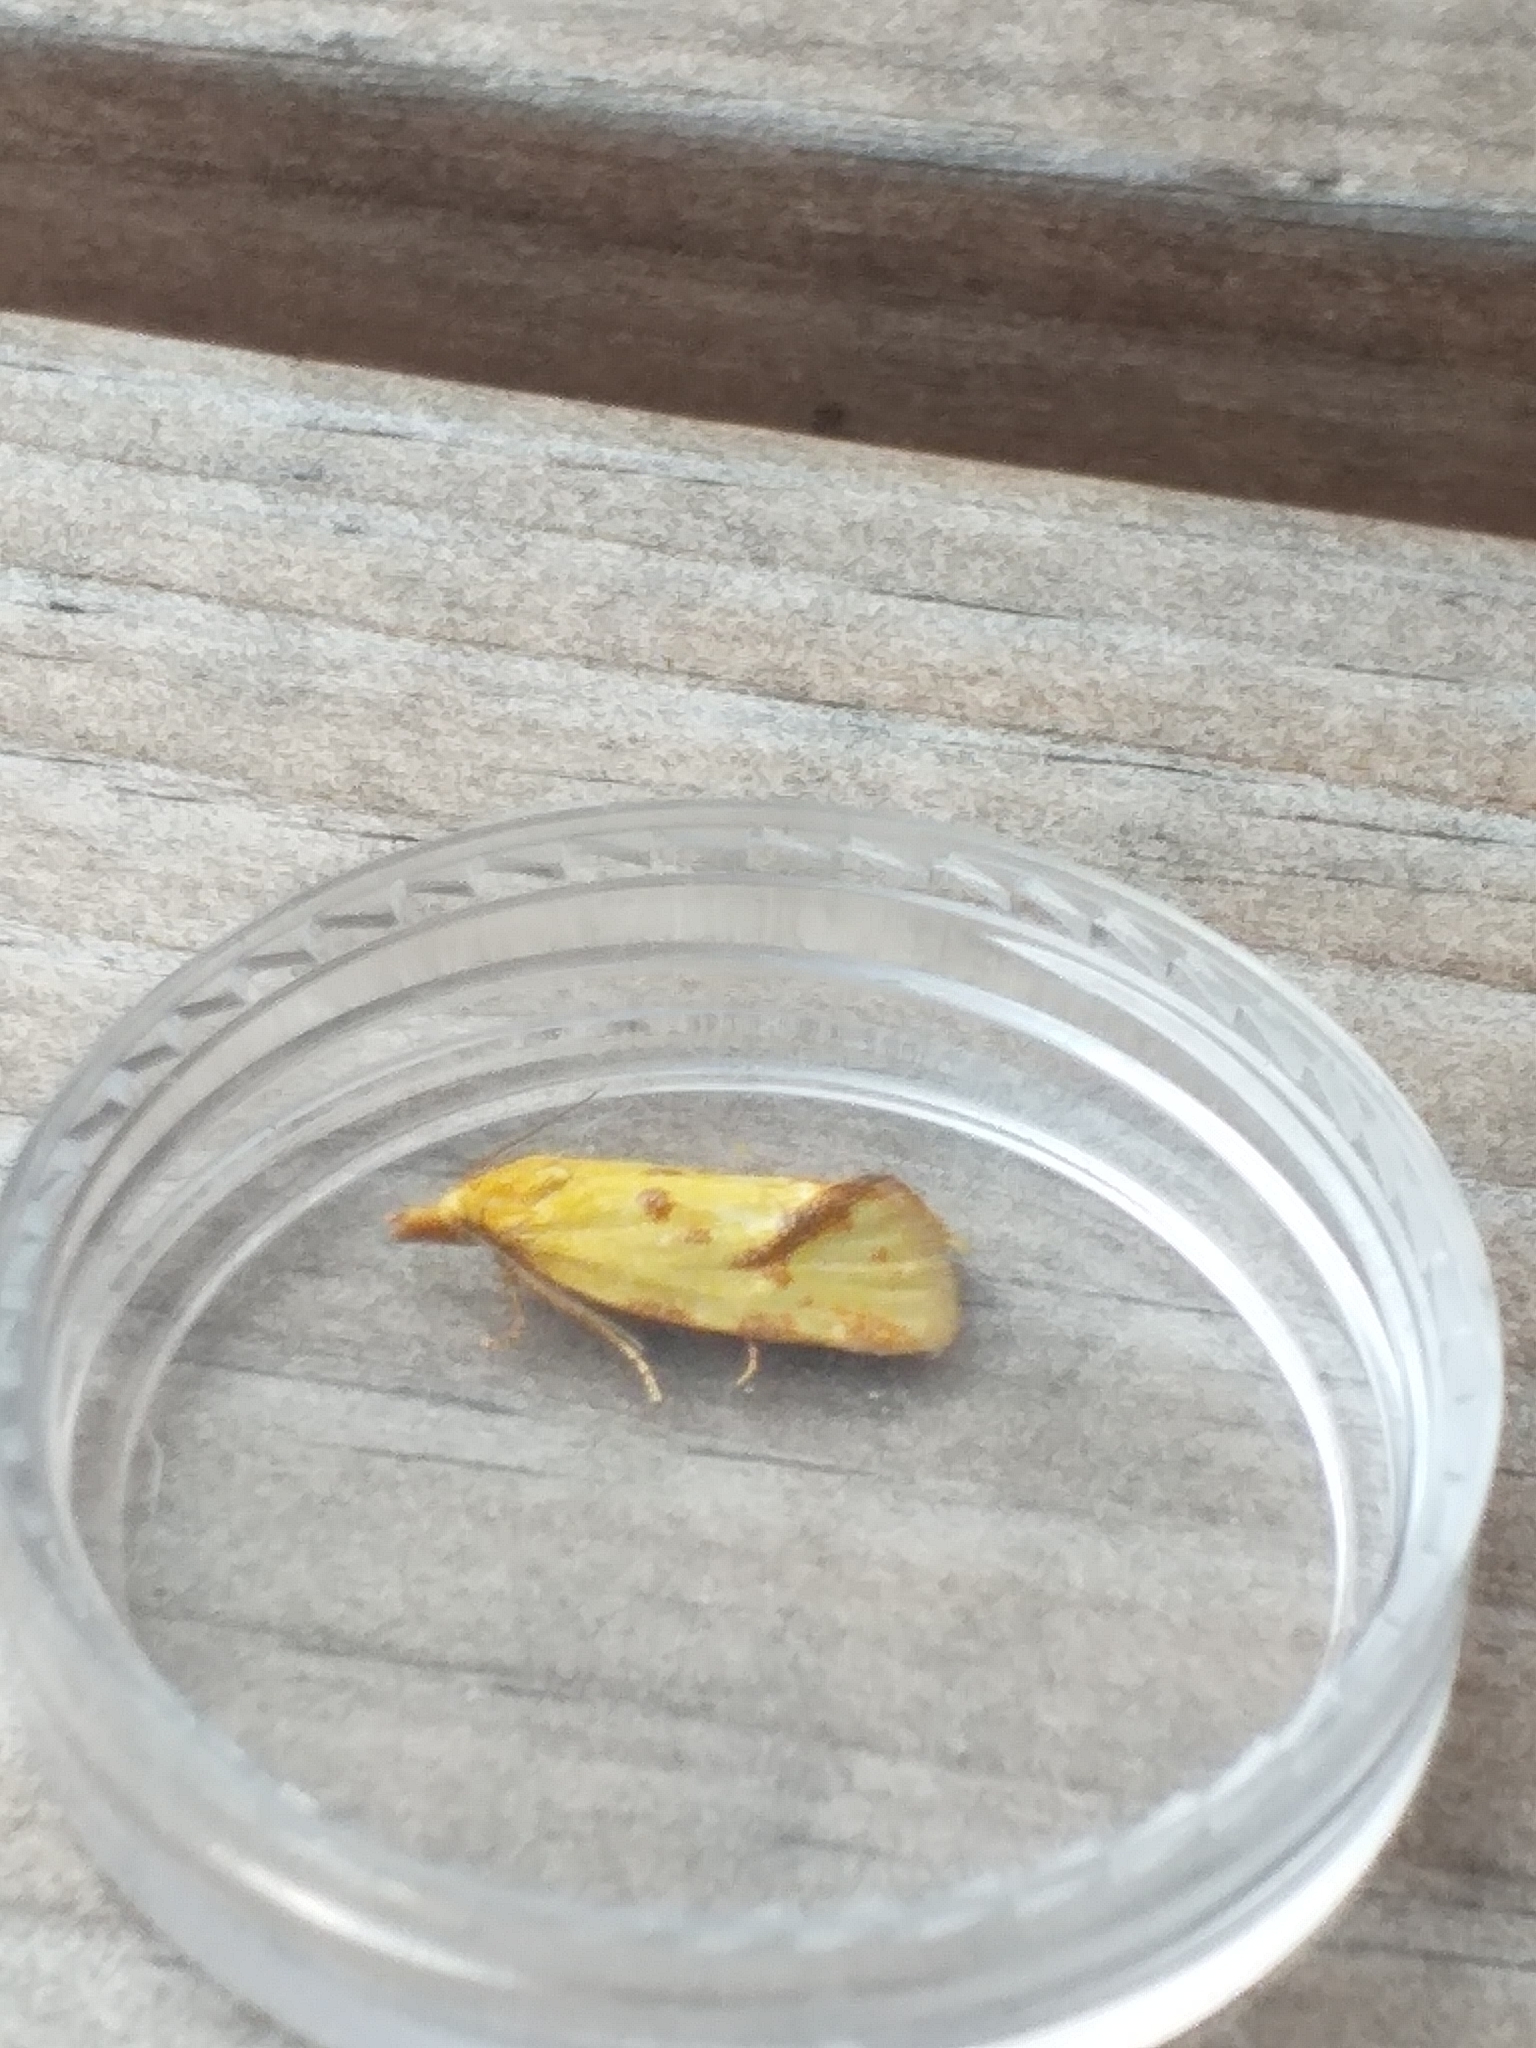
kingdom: Animalia
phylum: Arthropoda
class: Insecta
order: Lepidoptera
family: Tortricidae
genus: Agapeta
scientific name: Agapeta hamana
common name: Common yellow conch
